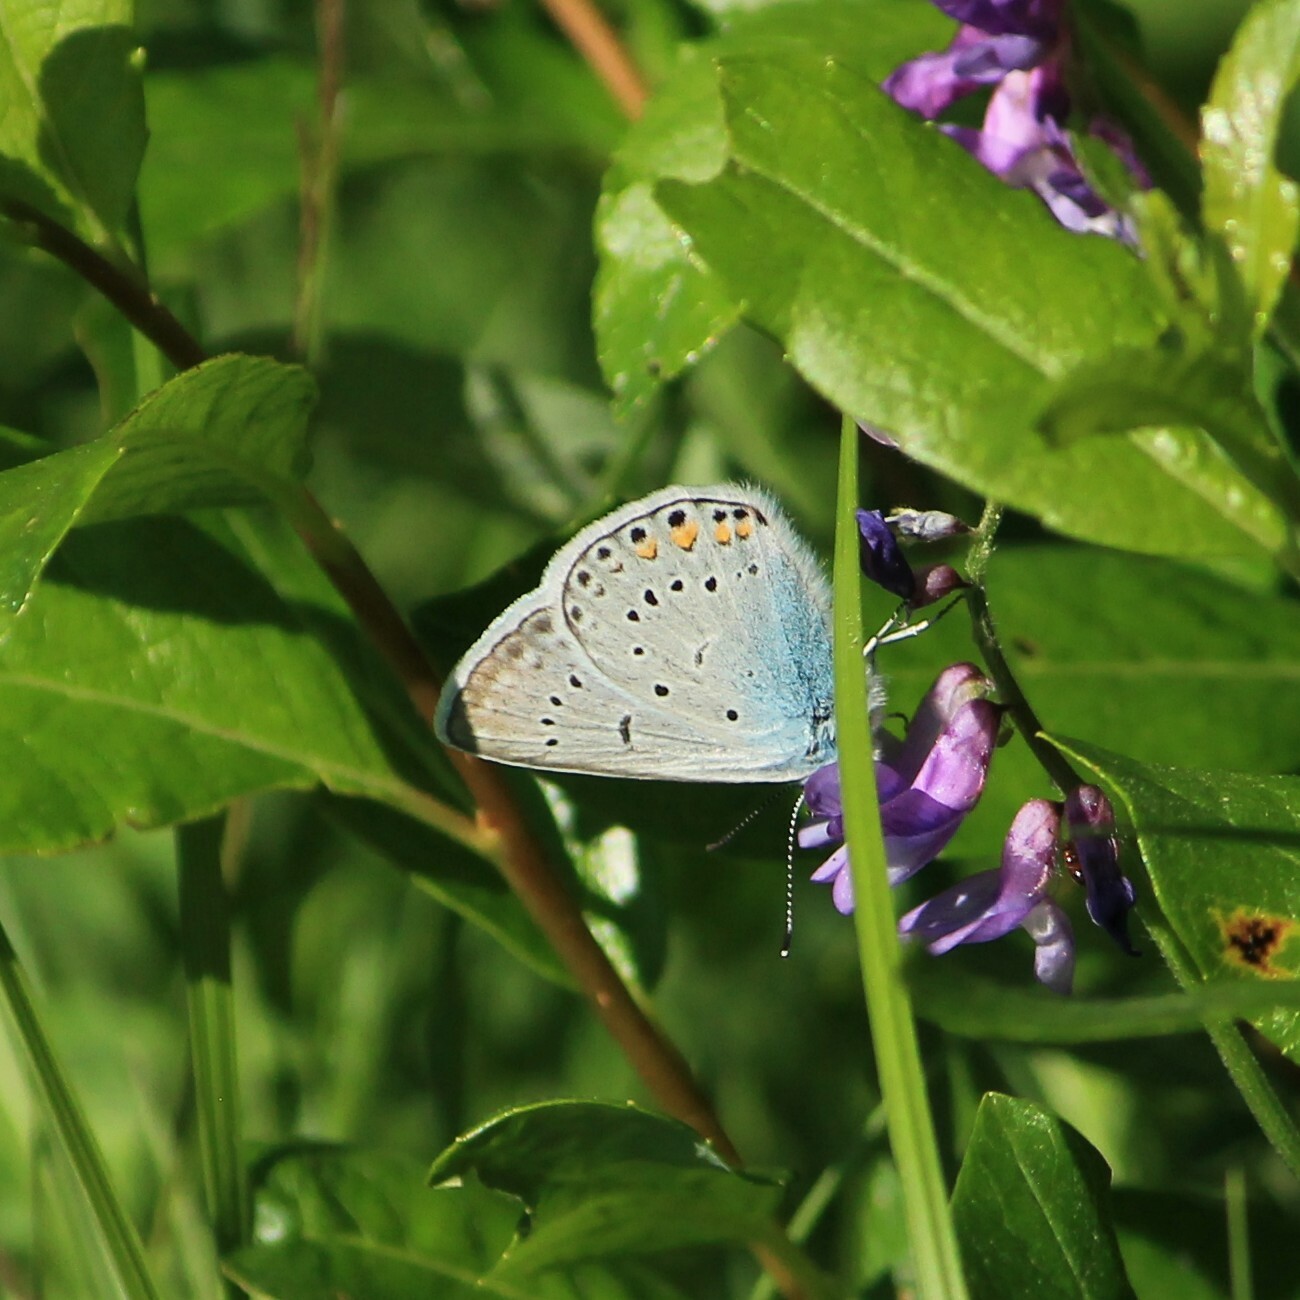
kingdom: Animalia
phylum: Arthropoda
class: Insecta
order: Lepidoptera
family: Lycaenidae
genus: Plebejus
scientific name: Plebejus amanda
